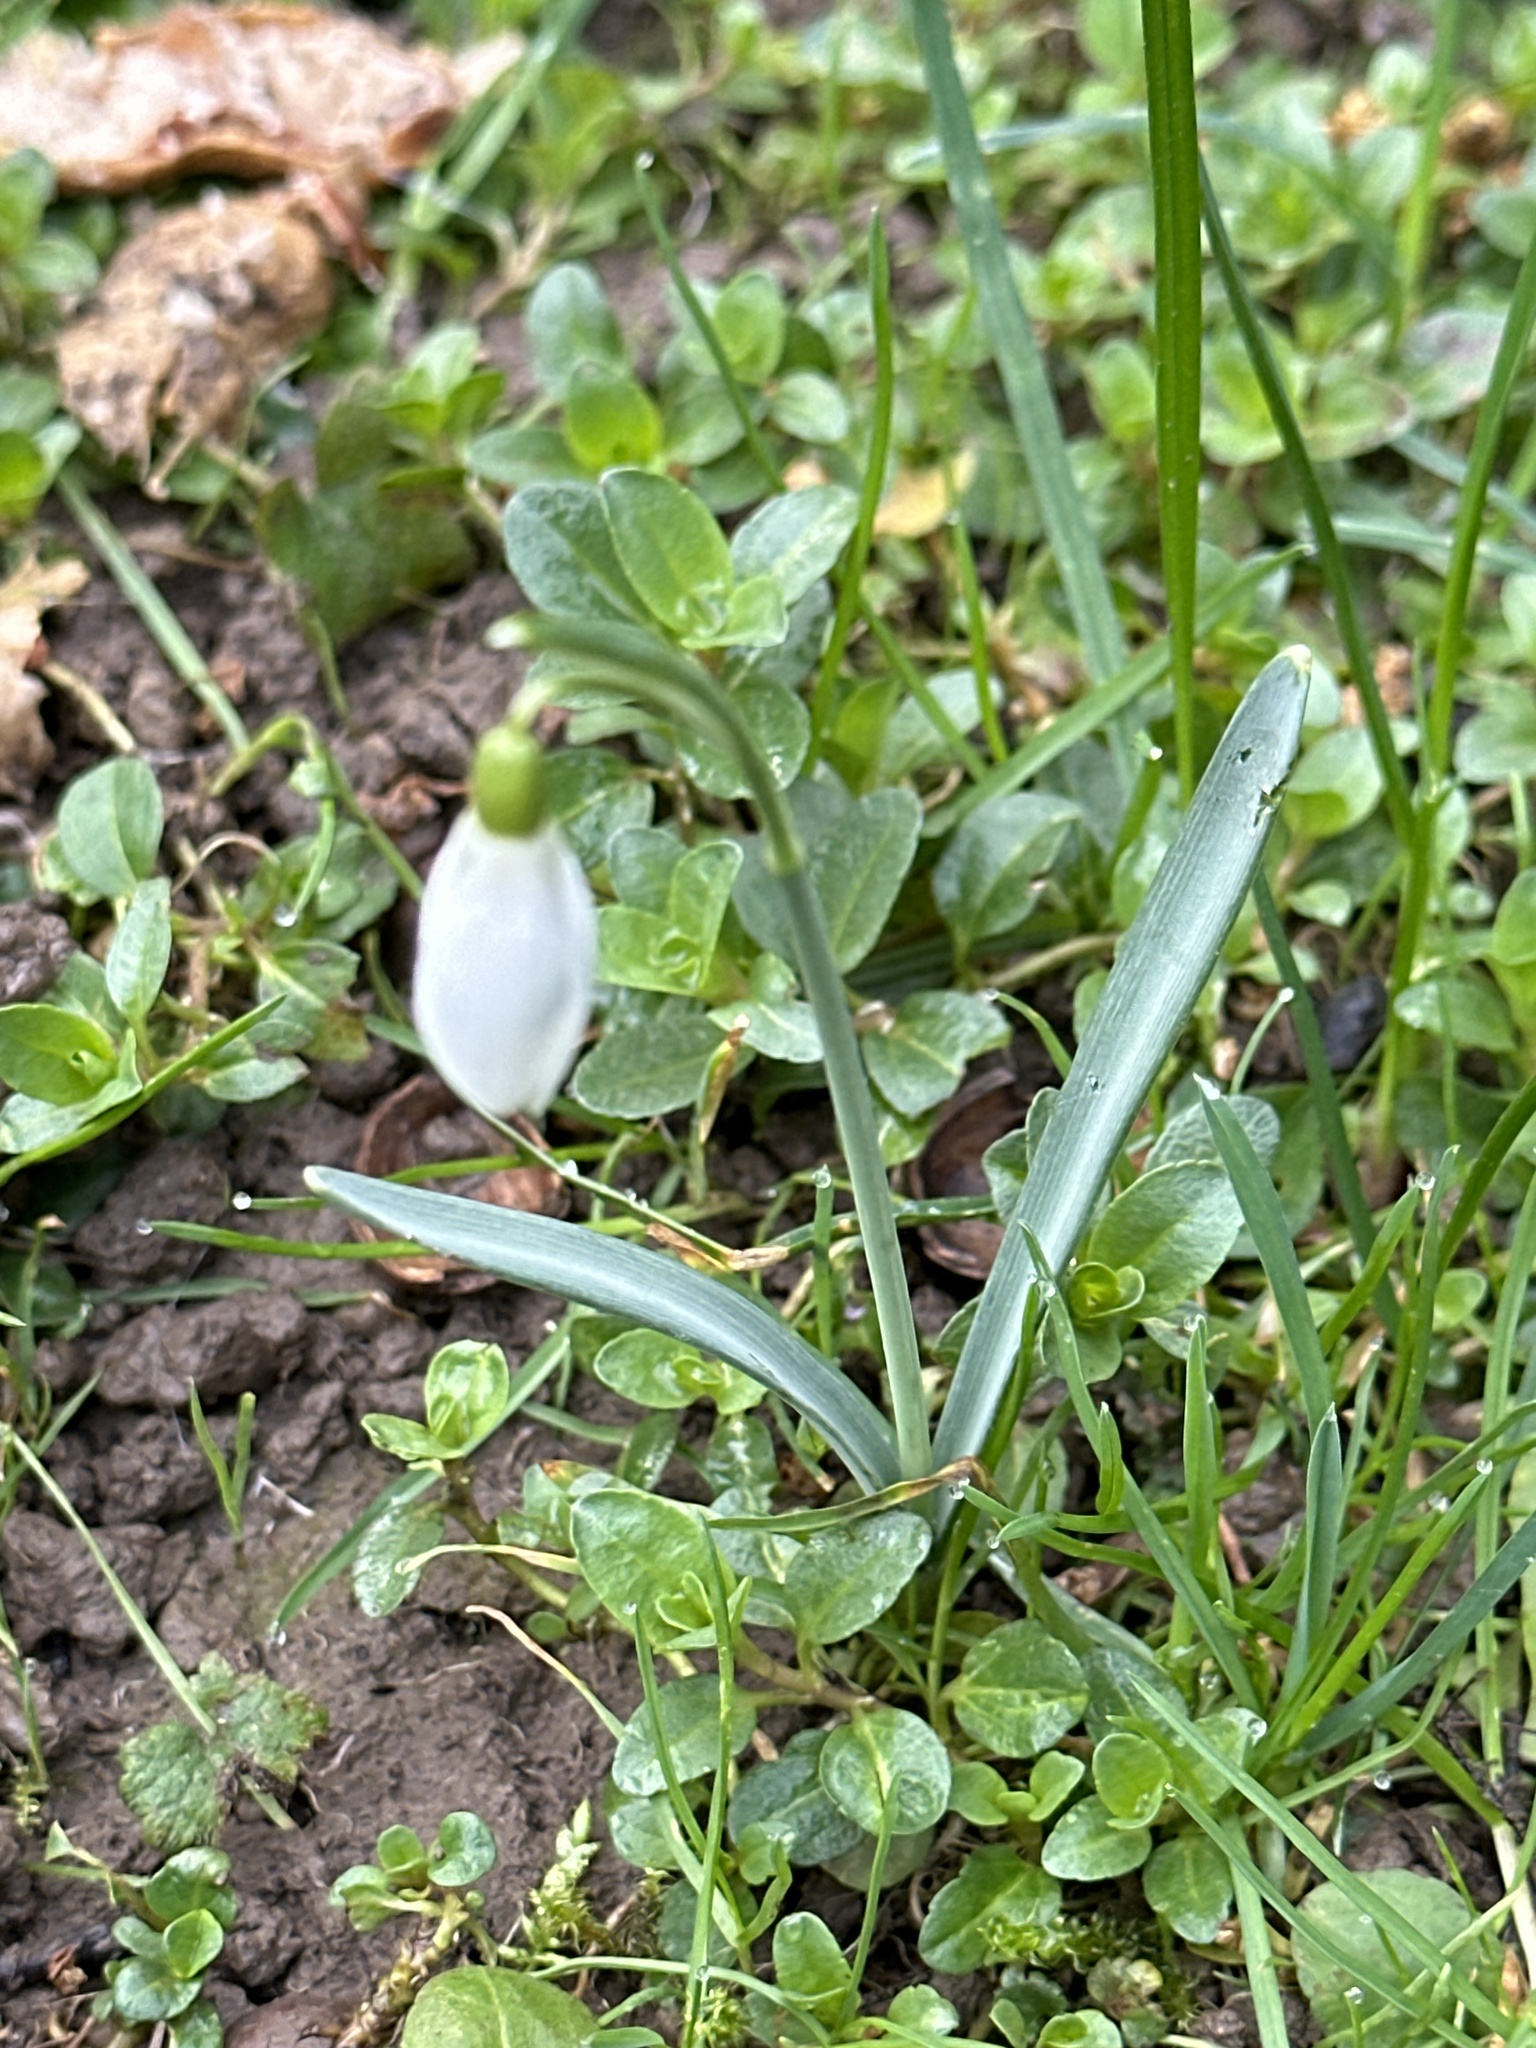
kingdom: Plantae
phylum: Tracheophyta
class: Liliopsida
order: Asparagales
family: Amaryllidaceae
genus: Galanthus
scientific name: Galanthus nivalis
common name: Snowdrop
